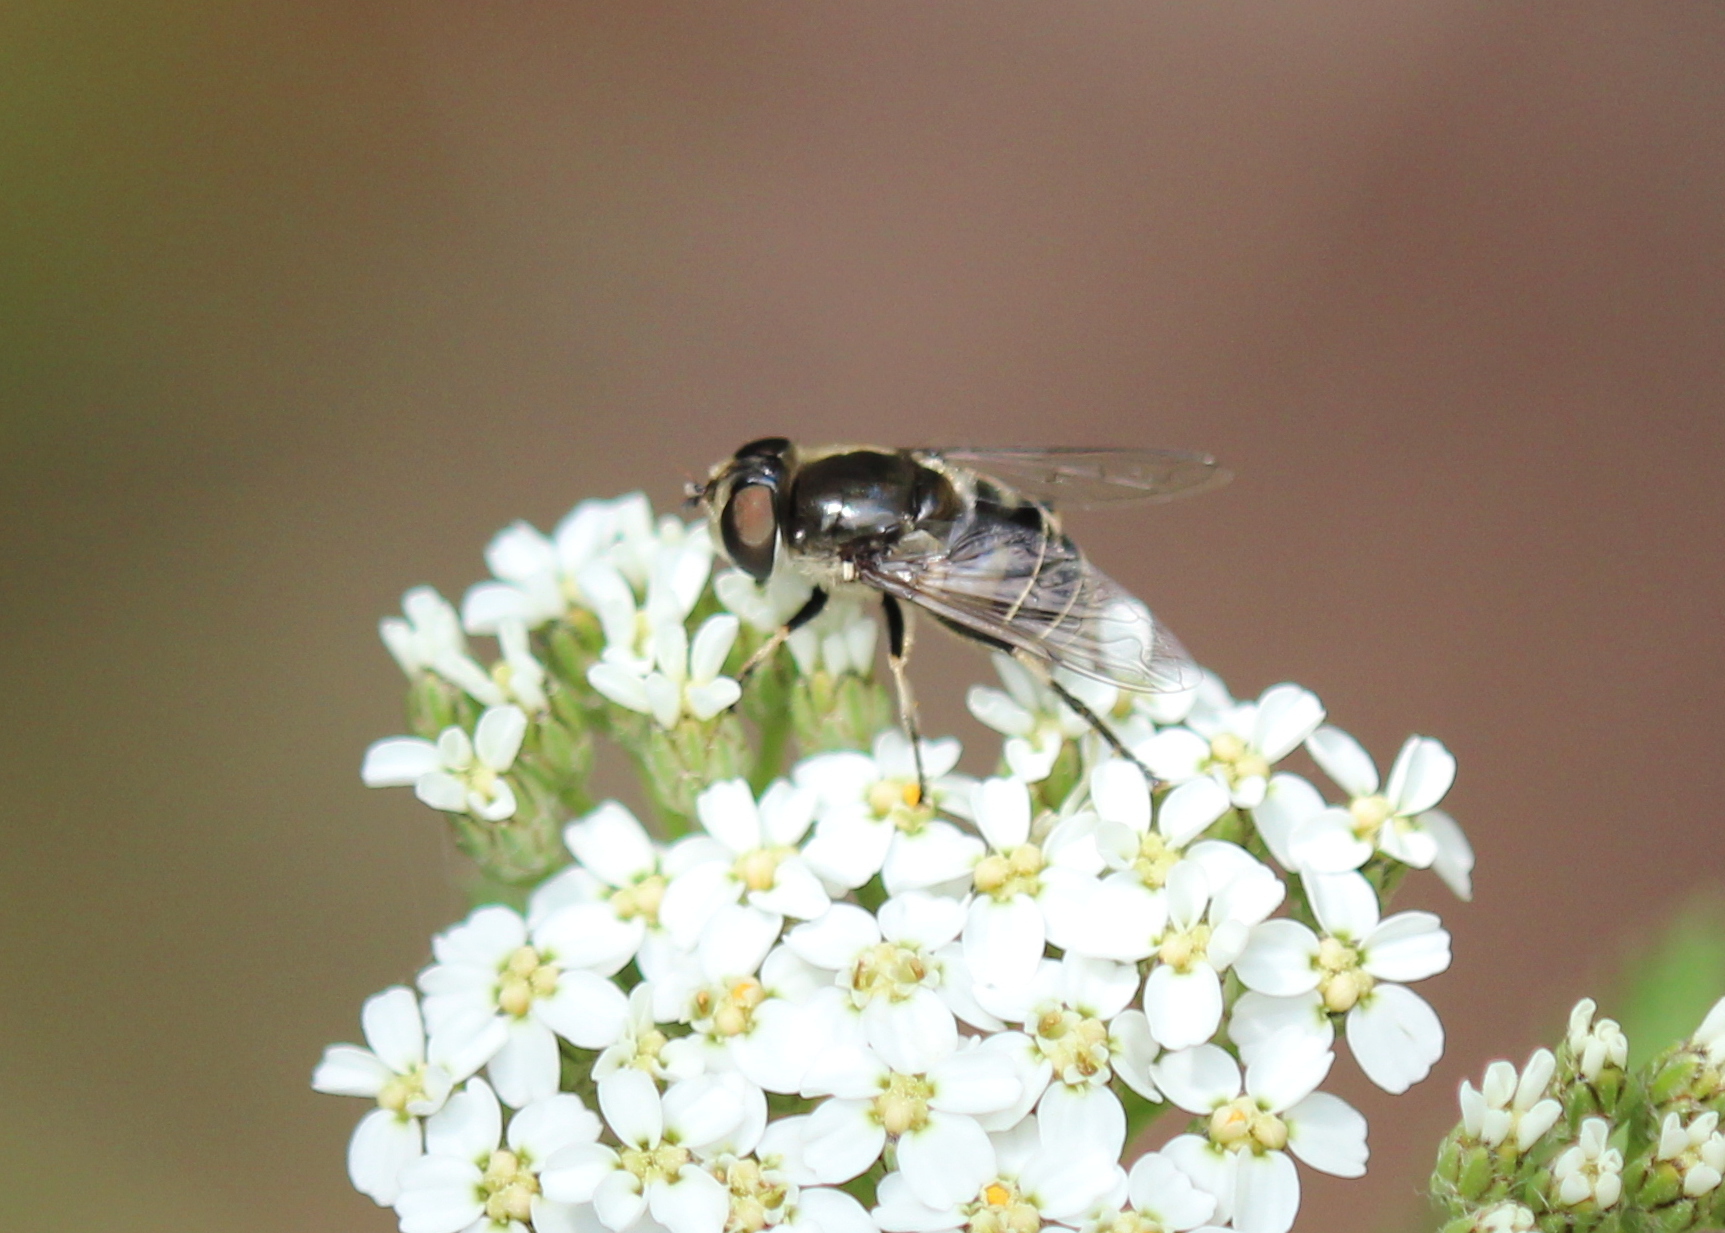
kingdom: Animalia
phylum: Arthropoda
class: Insecta
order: Diptera
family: Syrphidae
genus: Eristalis
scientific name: Eristalis dimidiata
